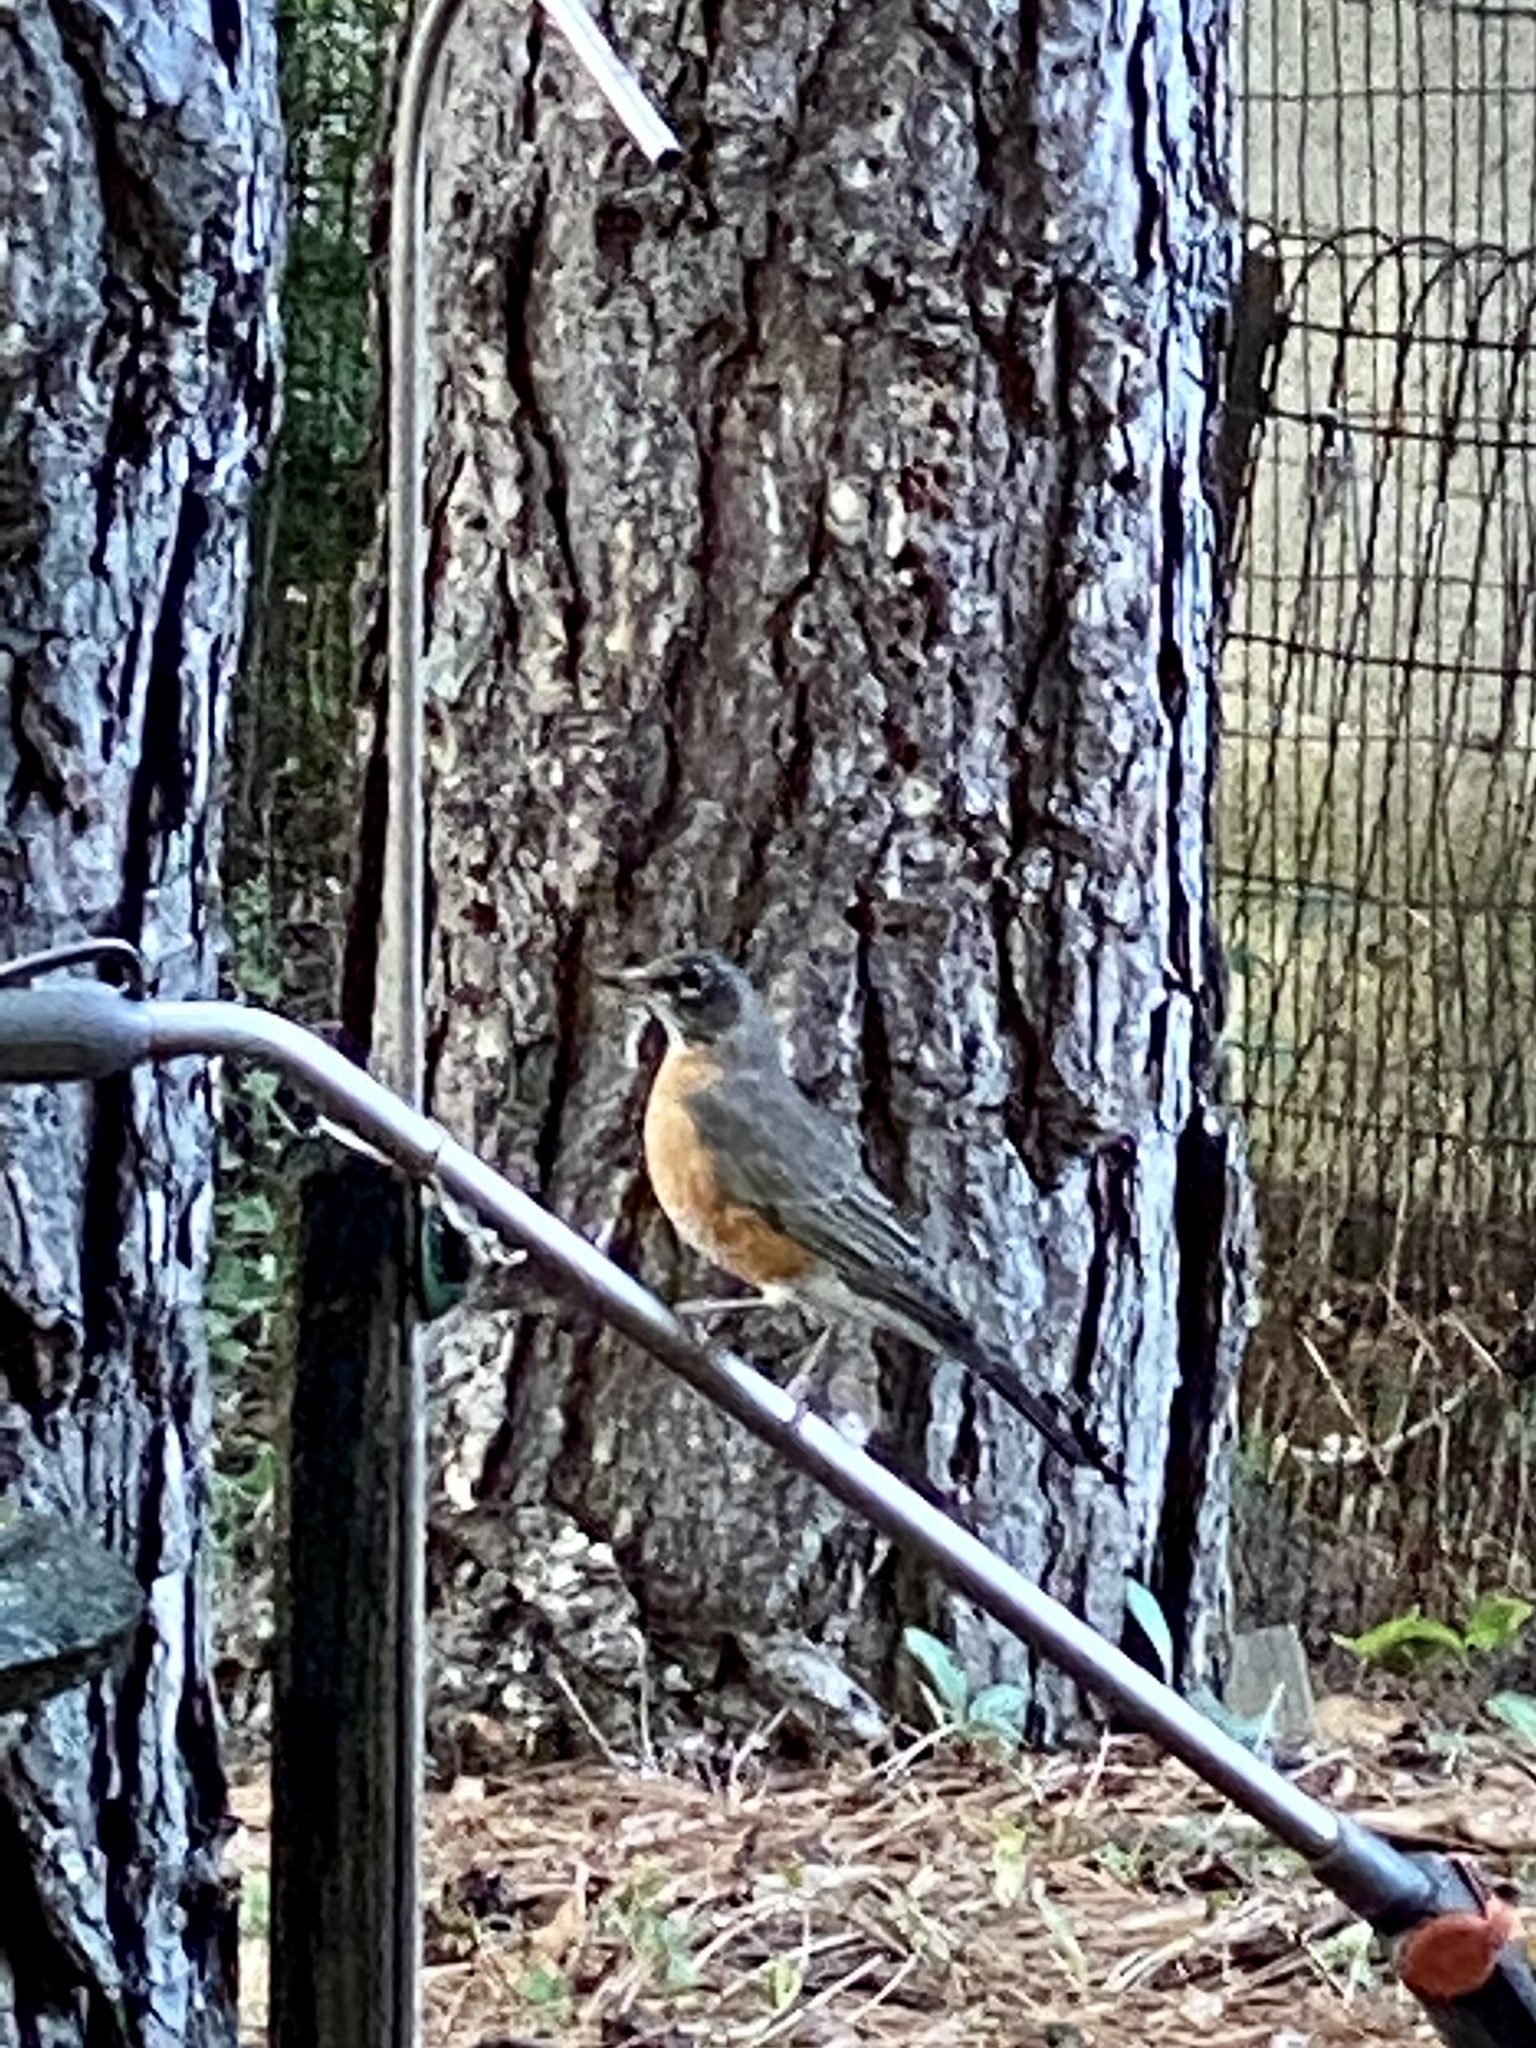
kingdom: Animalia
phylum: Chordata
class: Aves
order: Passeriformes
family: Turdidae
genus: Turdus
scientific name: Turdus migratorius
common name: American robin
